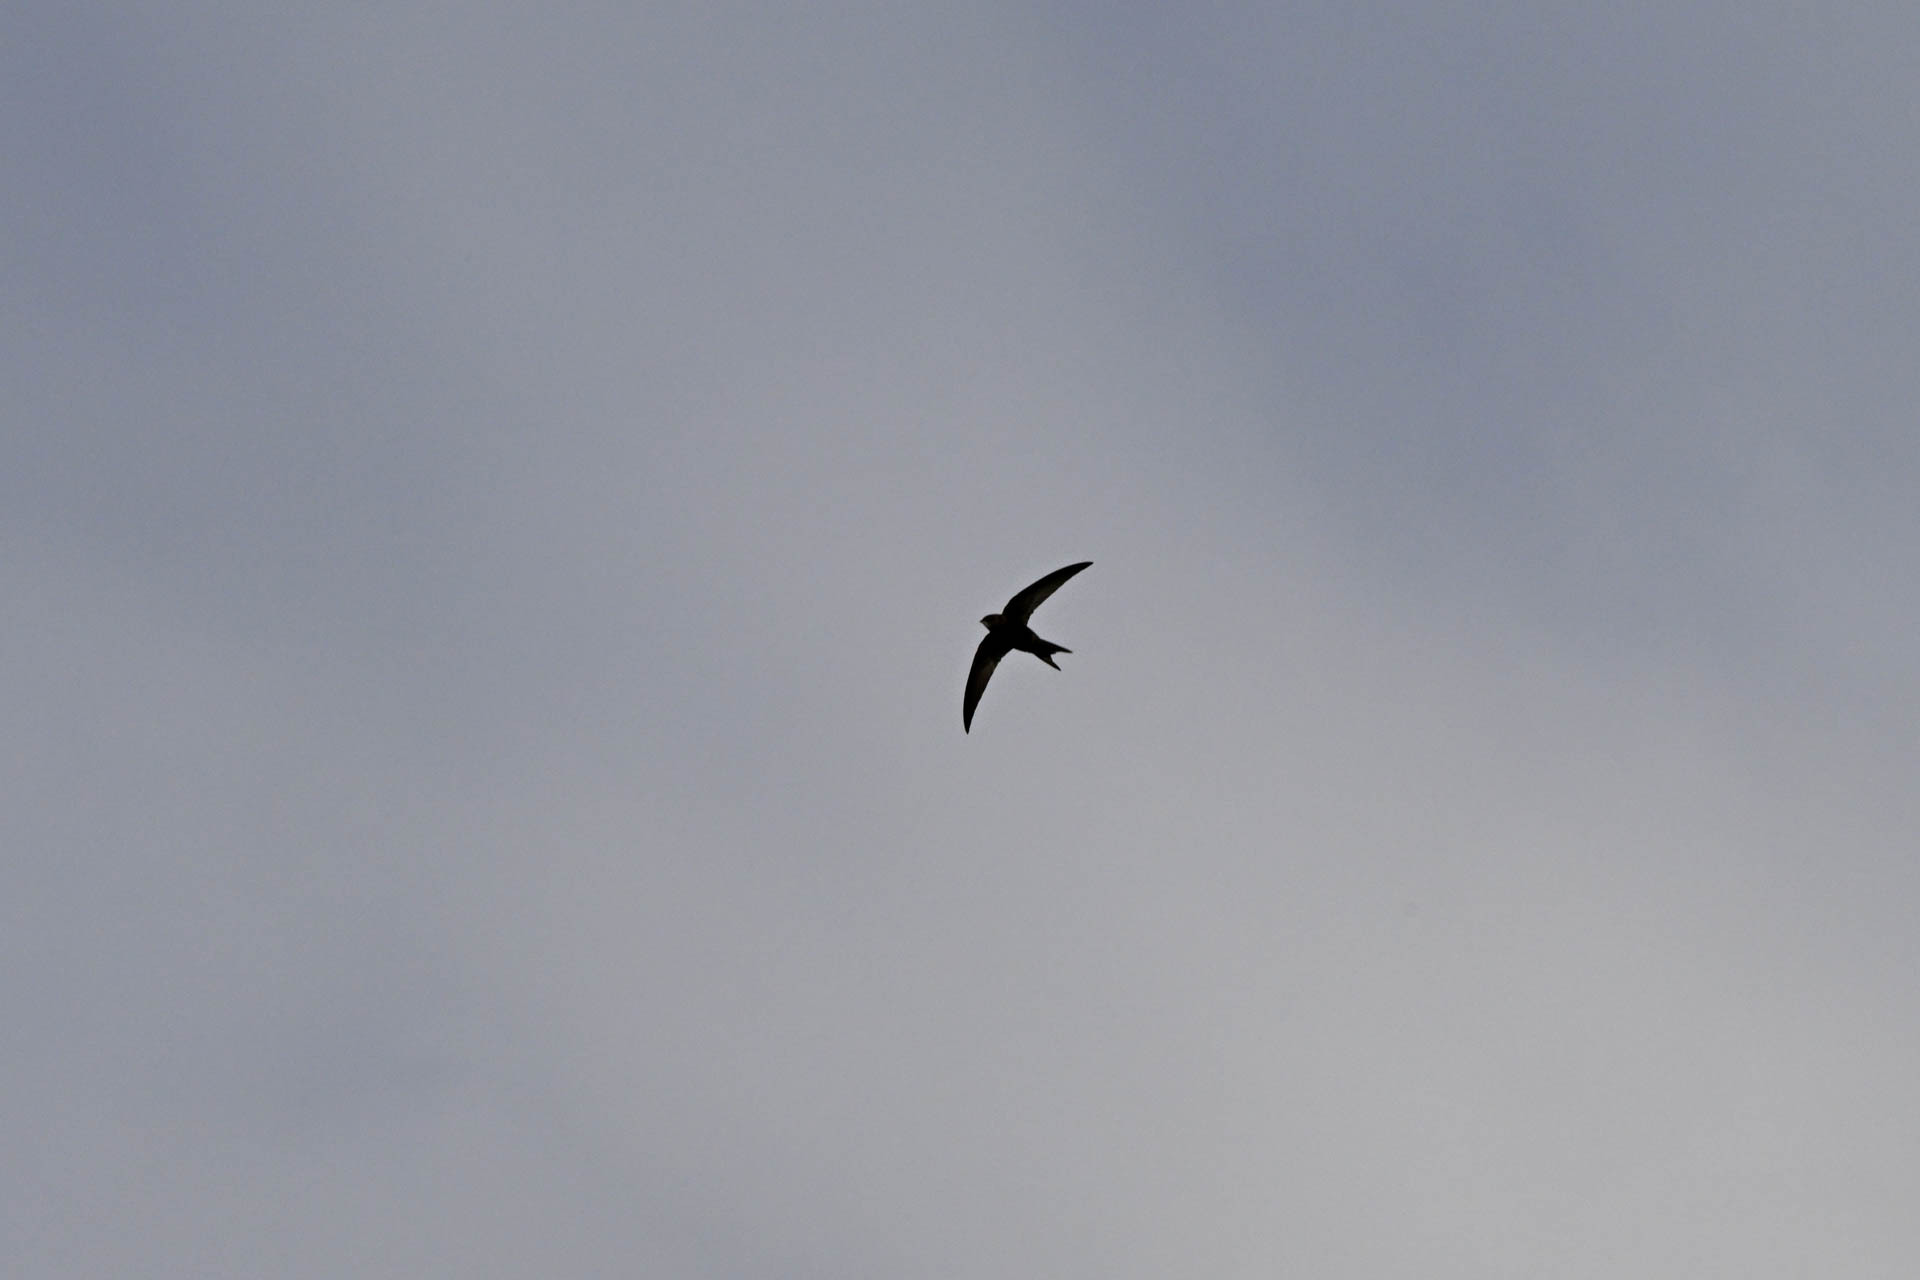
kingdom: Animalia
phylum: Chordata
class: Aves
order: Apodiformes
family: Apodidae
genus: Apus
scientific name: Apus apus
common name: Common swift
